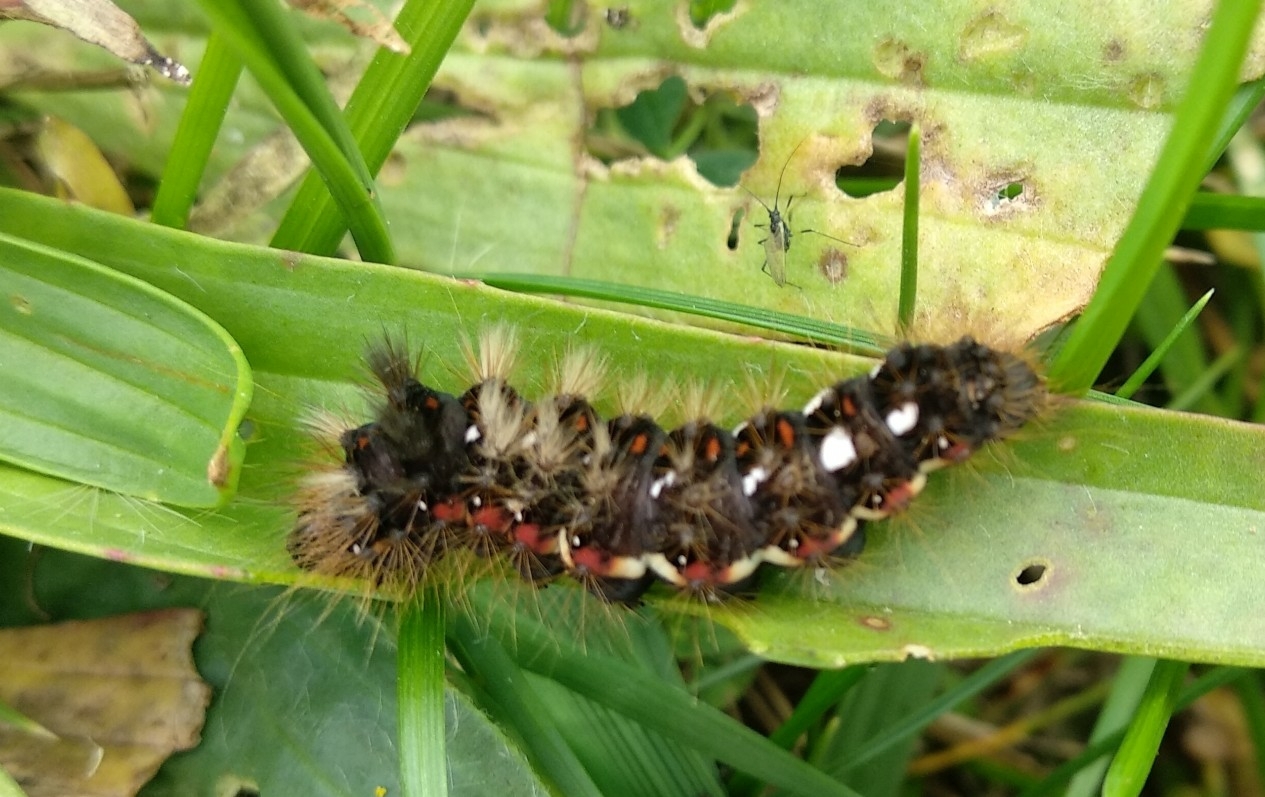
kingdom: Animalia
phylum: Arthropoda
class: Insecta
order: Lepidoptera
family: Noctuidae
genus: Acronicta
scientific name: Acronicta rumicis
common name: Knot grass
